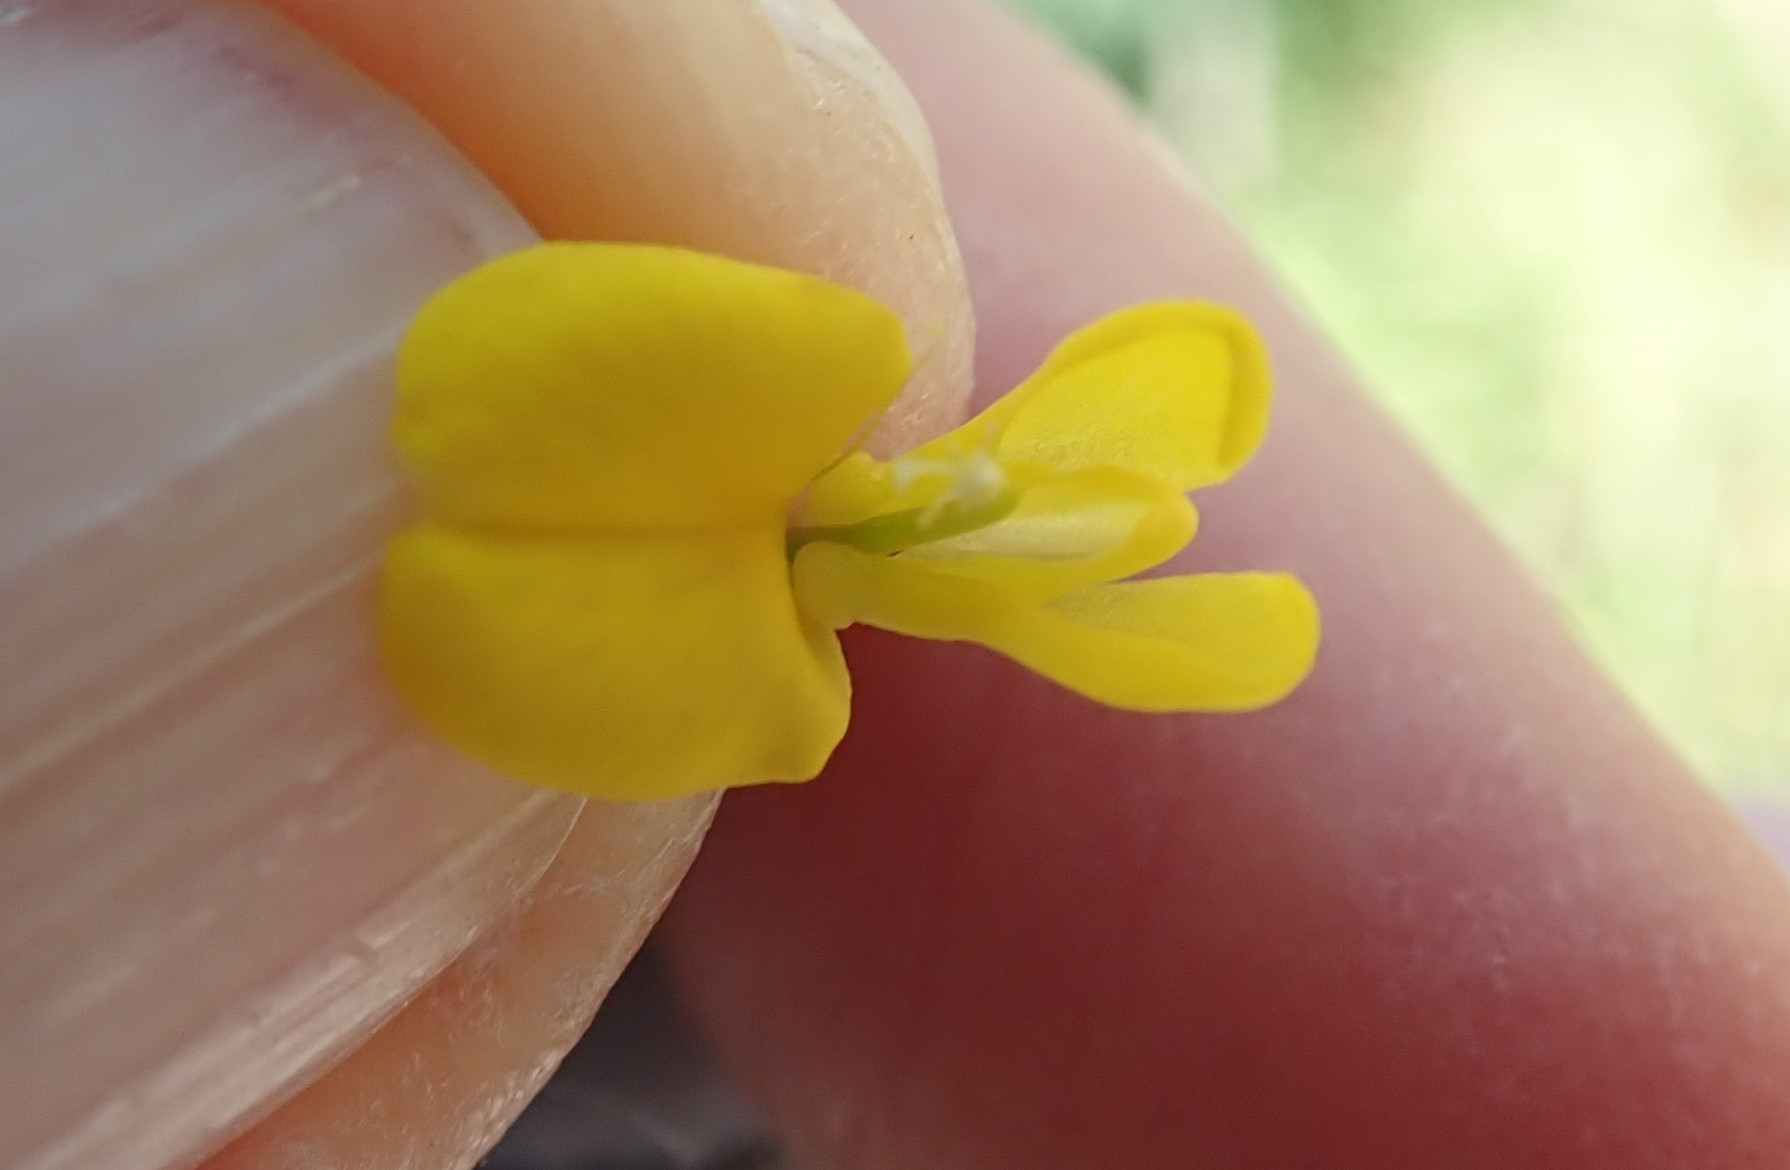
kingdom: Plantae
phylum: Tracheophyta
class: Magnoliopsida
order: Fabales
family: Fabaceae
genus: Acmispon
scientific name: Acmispon glaber
